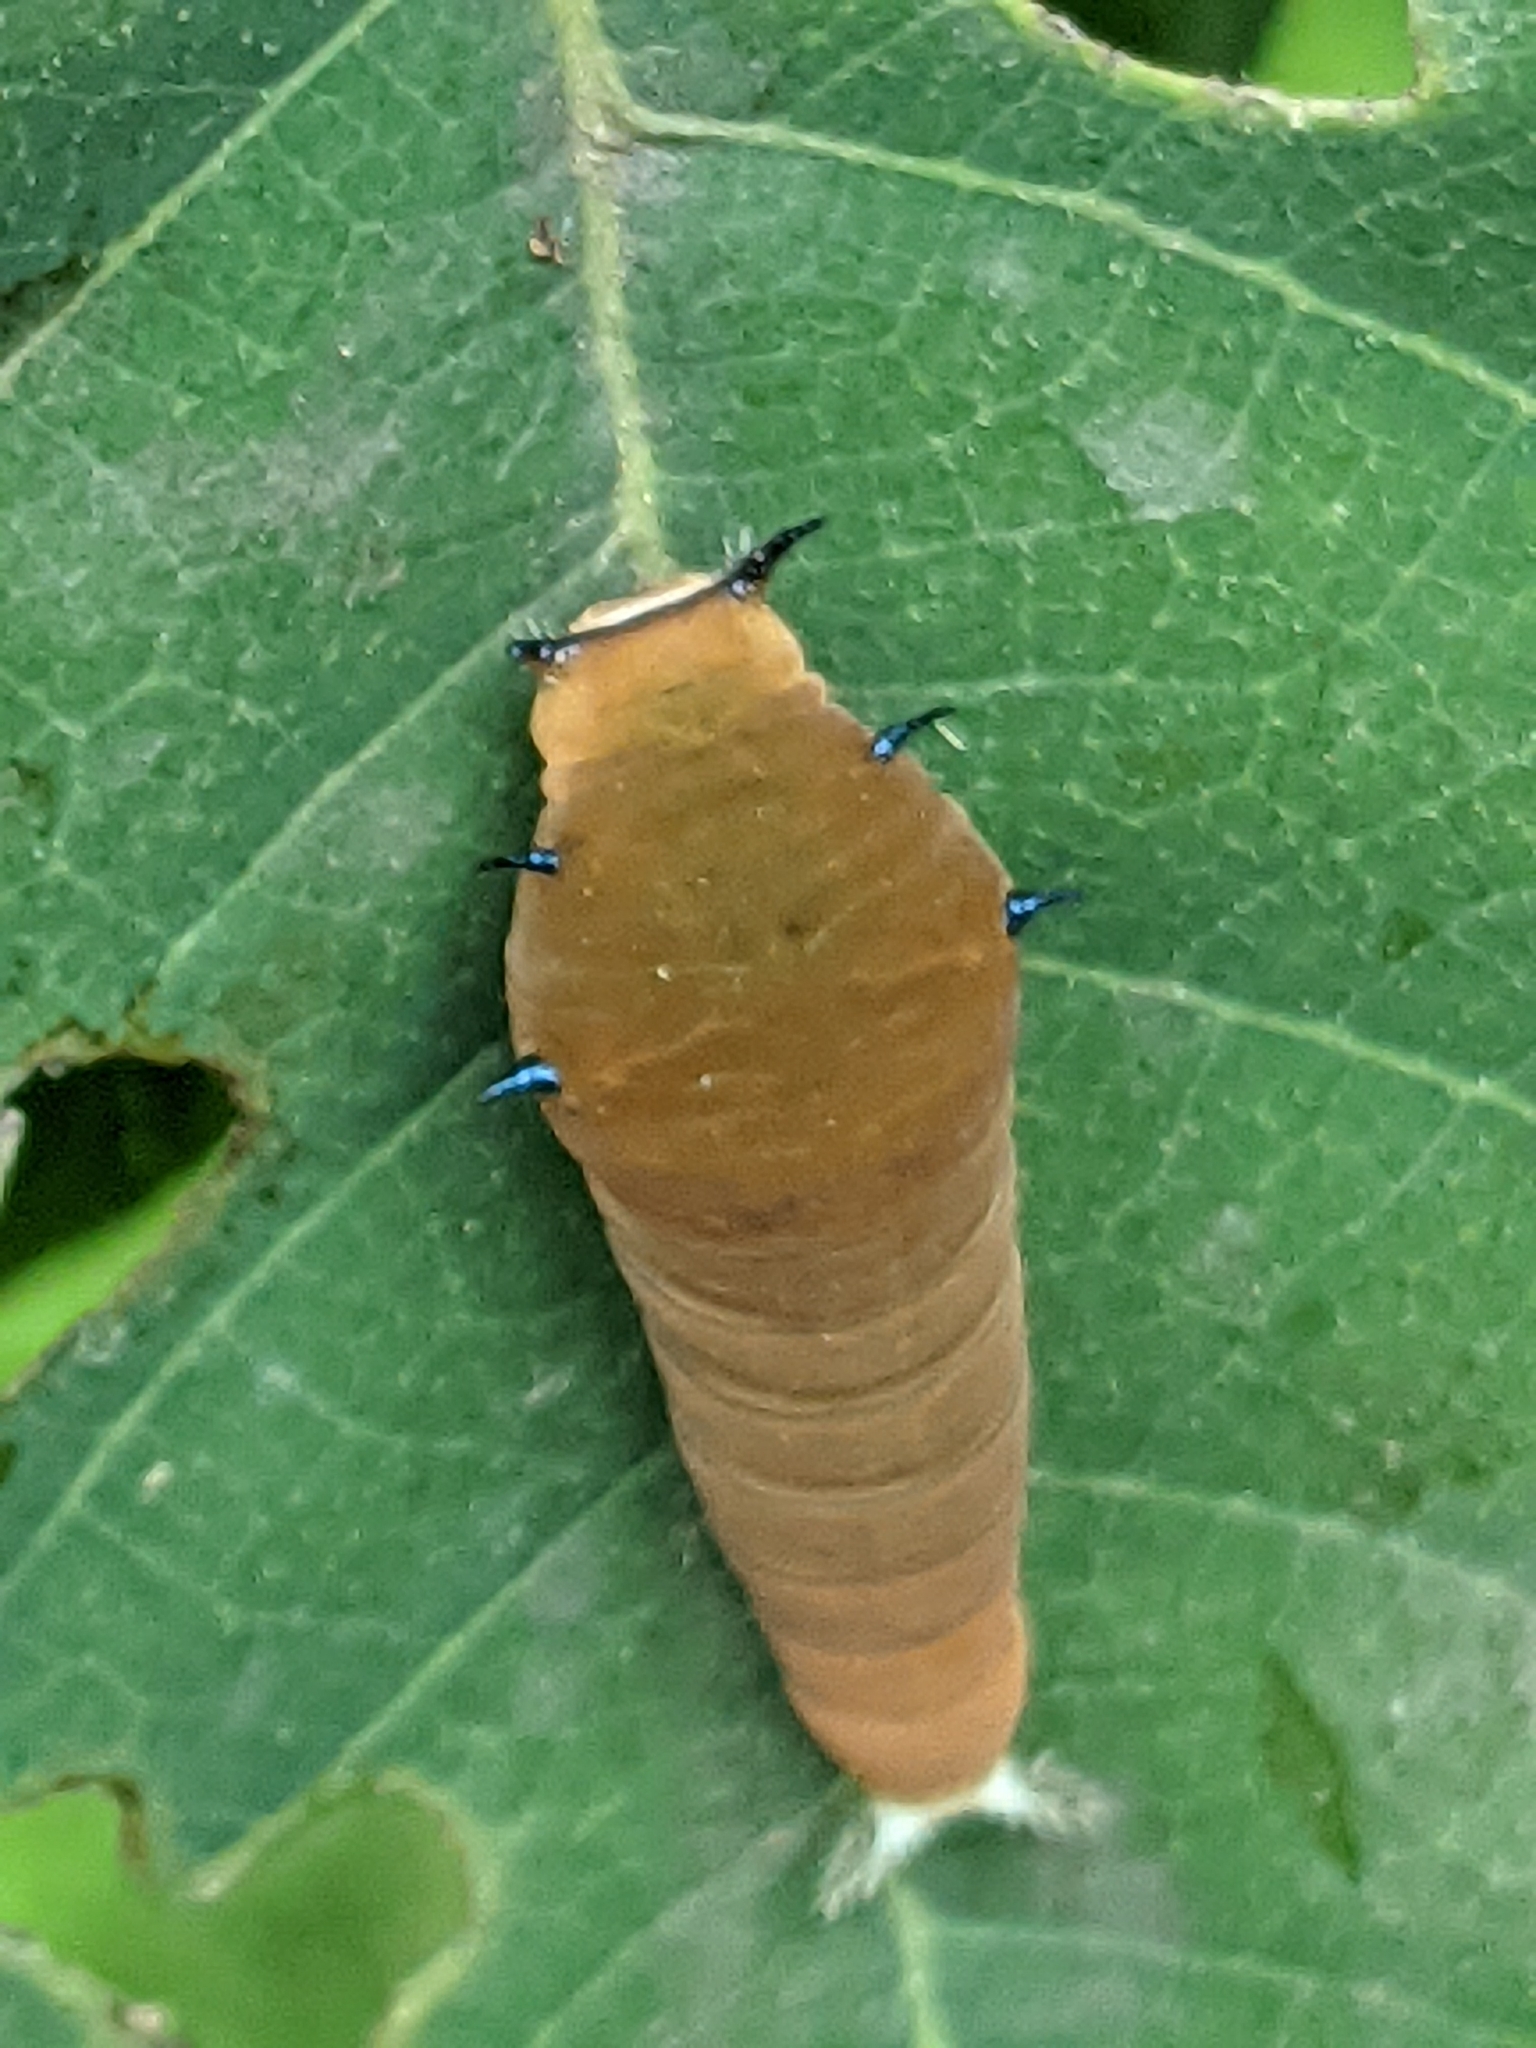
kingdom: Animalia
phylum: Arthropoda
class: Insecta
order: Lepidoptera
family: Papilionidae
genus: Graphium
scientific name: Graphium doson
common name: Common jay
